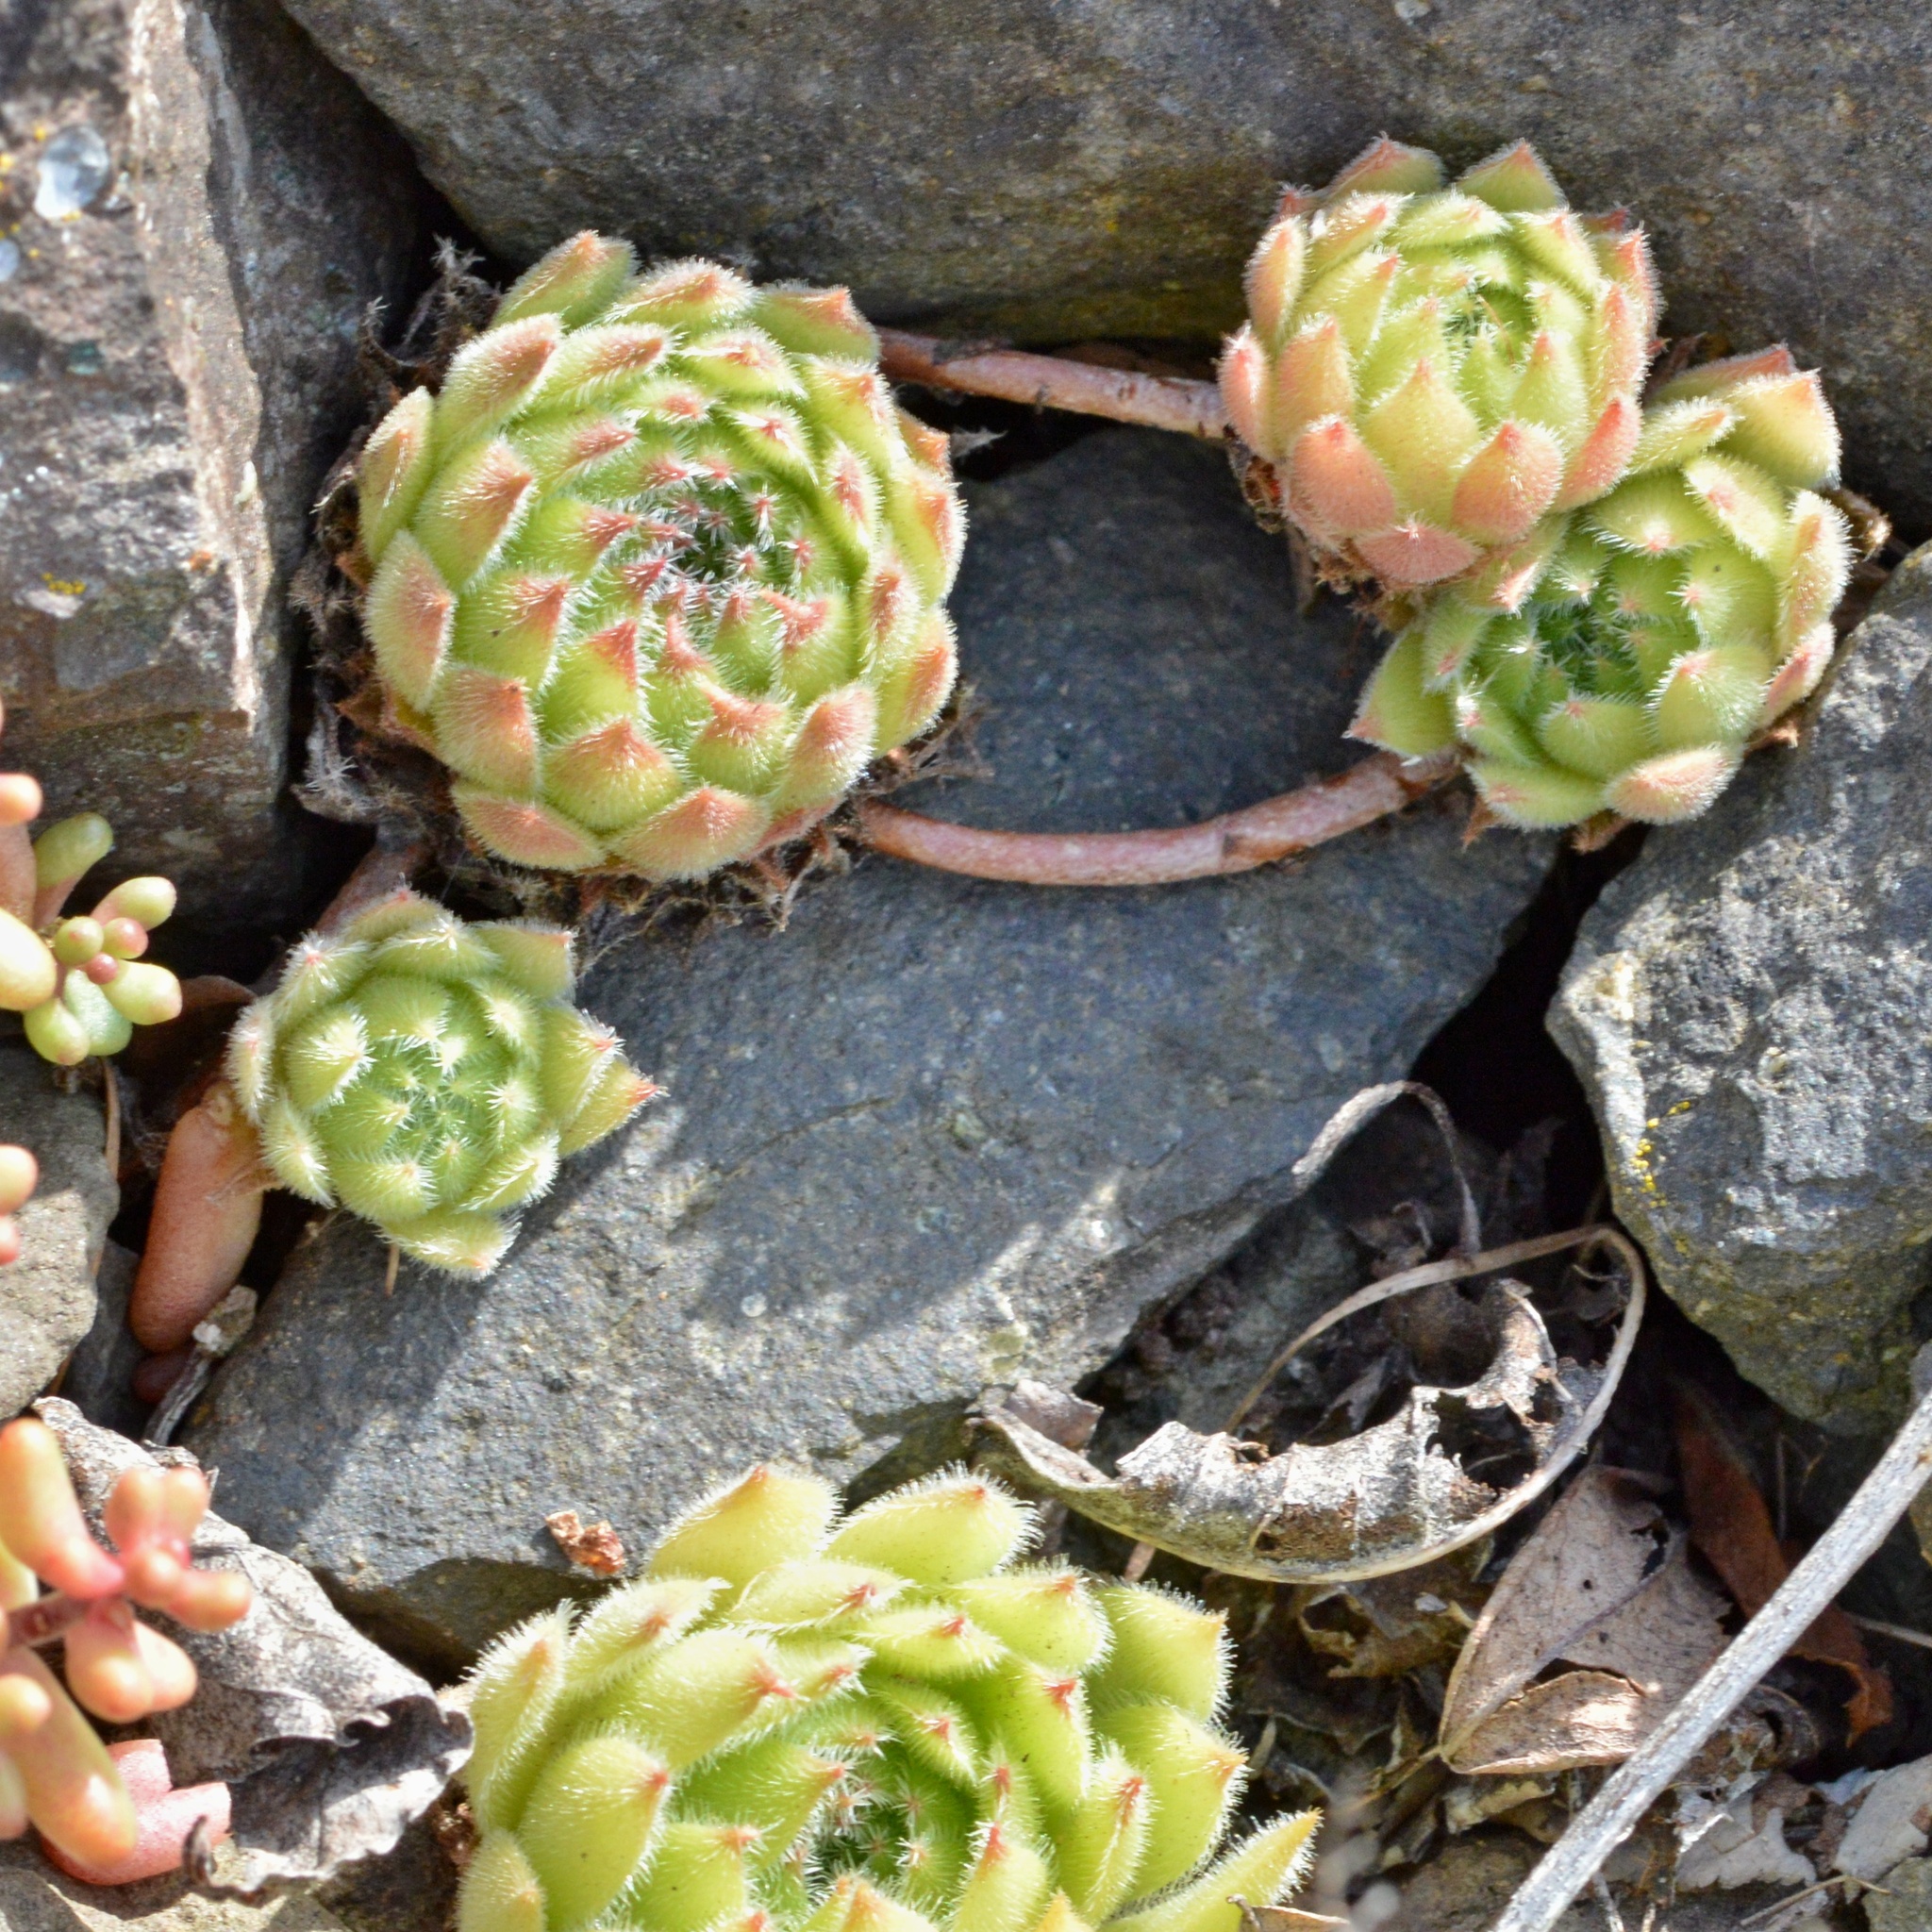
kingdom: Plantae
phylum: Tracheophyta
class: Magnoliopsida
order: Saxifragales
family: Crassulaceae
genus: Sempervivum
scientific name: Sempervivum globiferum
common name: Rolling hen-and-chicks
